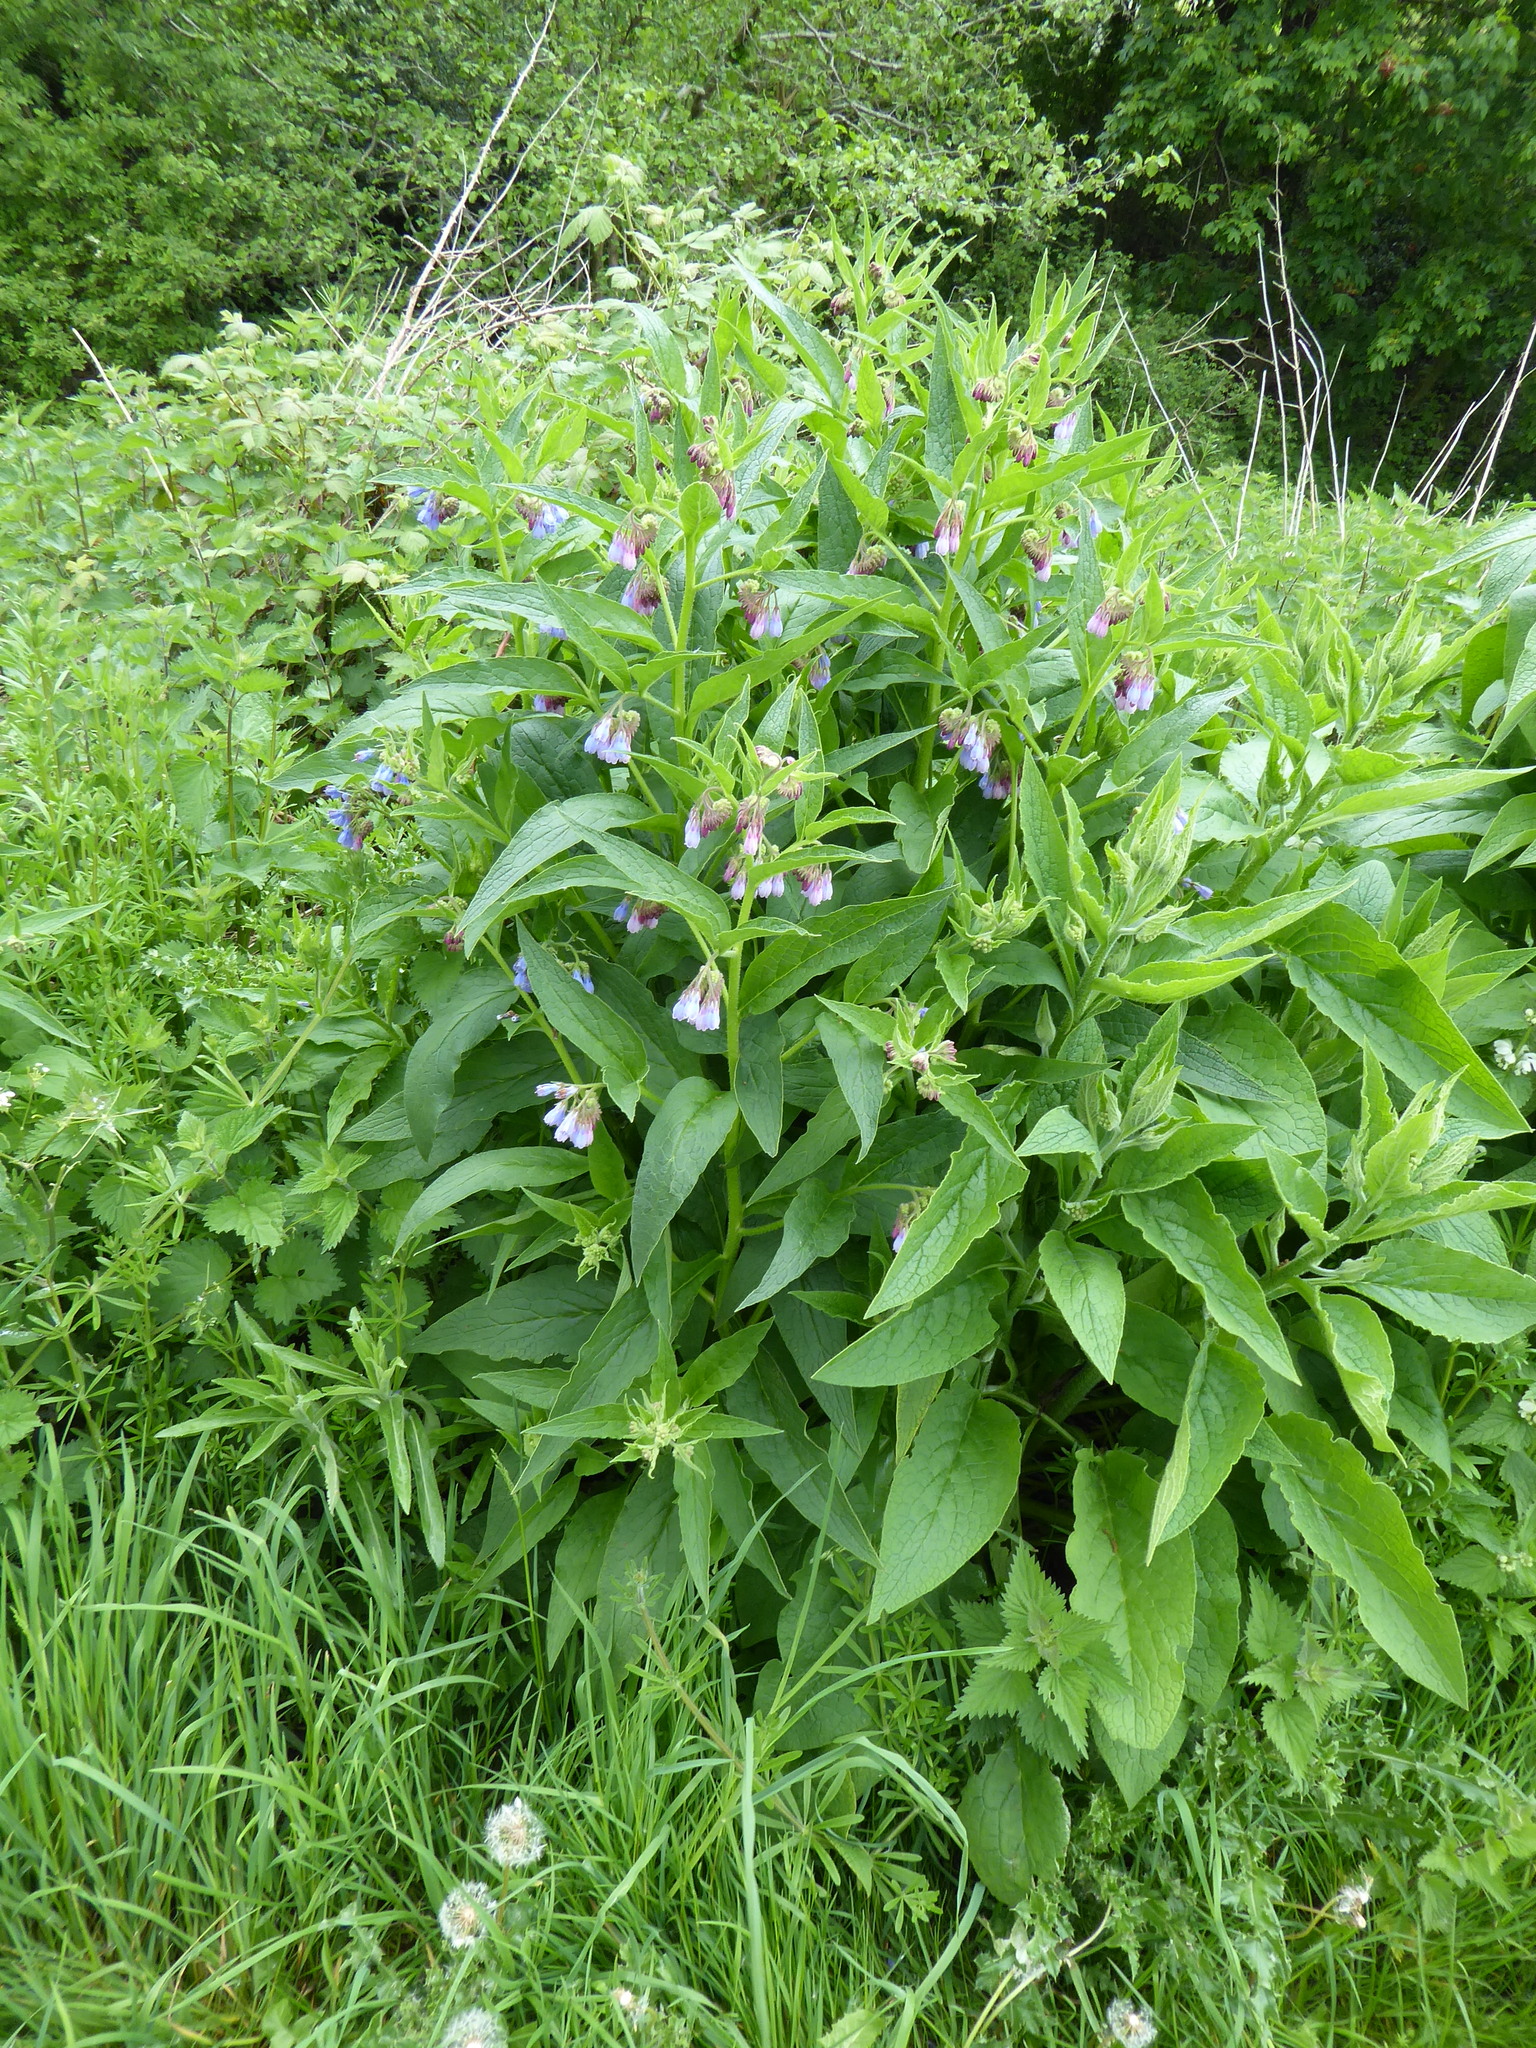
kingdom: Plantae
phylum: Tracheophyta
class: Magnoliopsida
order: Boraginales
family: Boraginaceae
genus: Symphytum
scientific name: Symphytum uplandicum
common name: Russian comfrey
